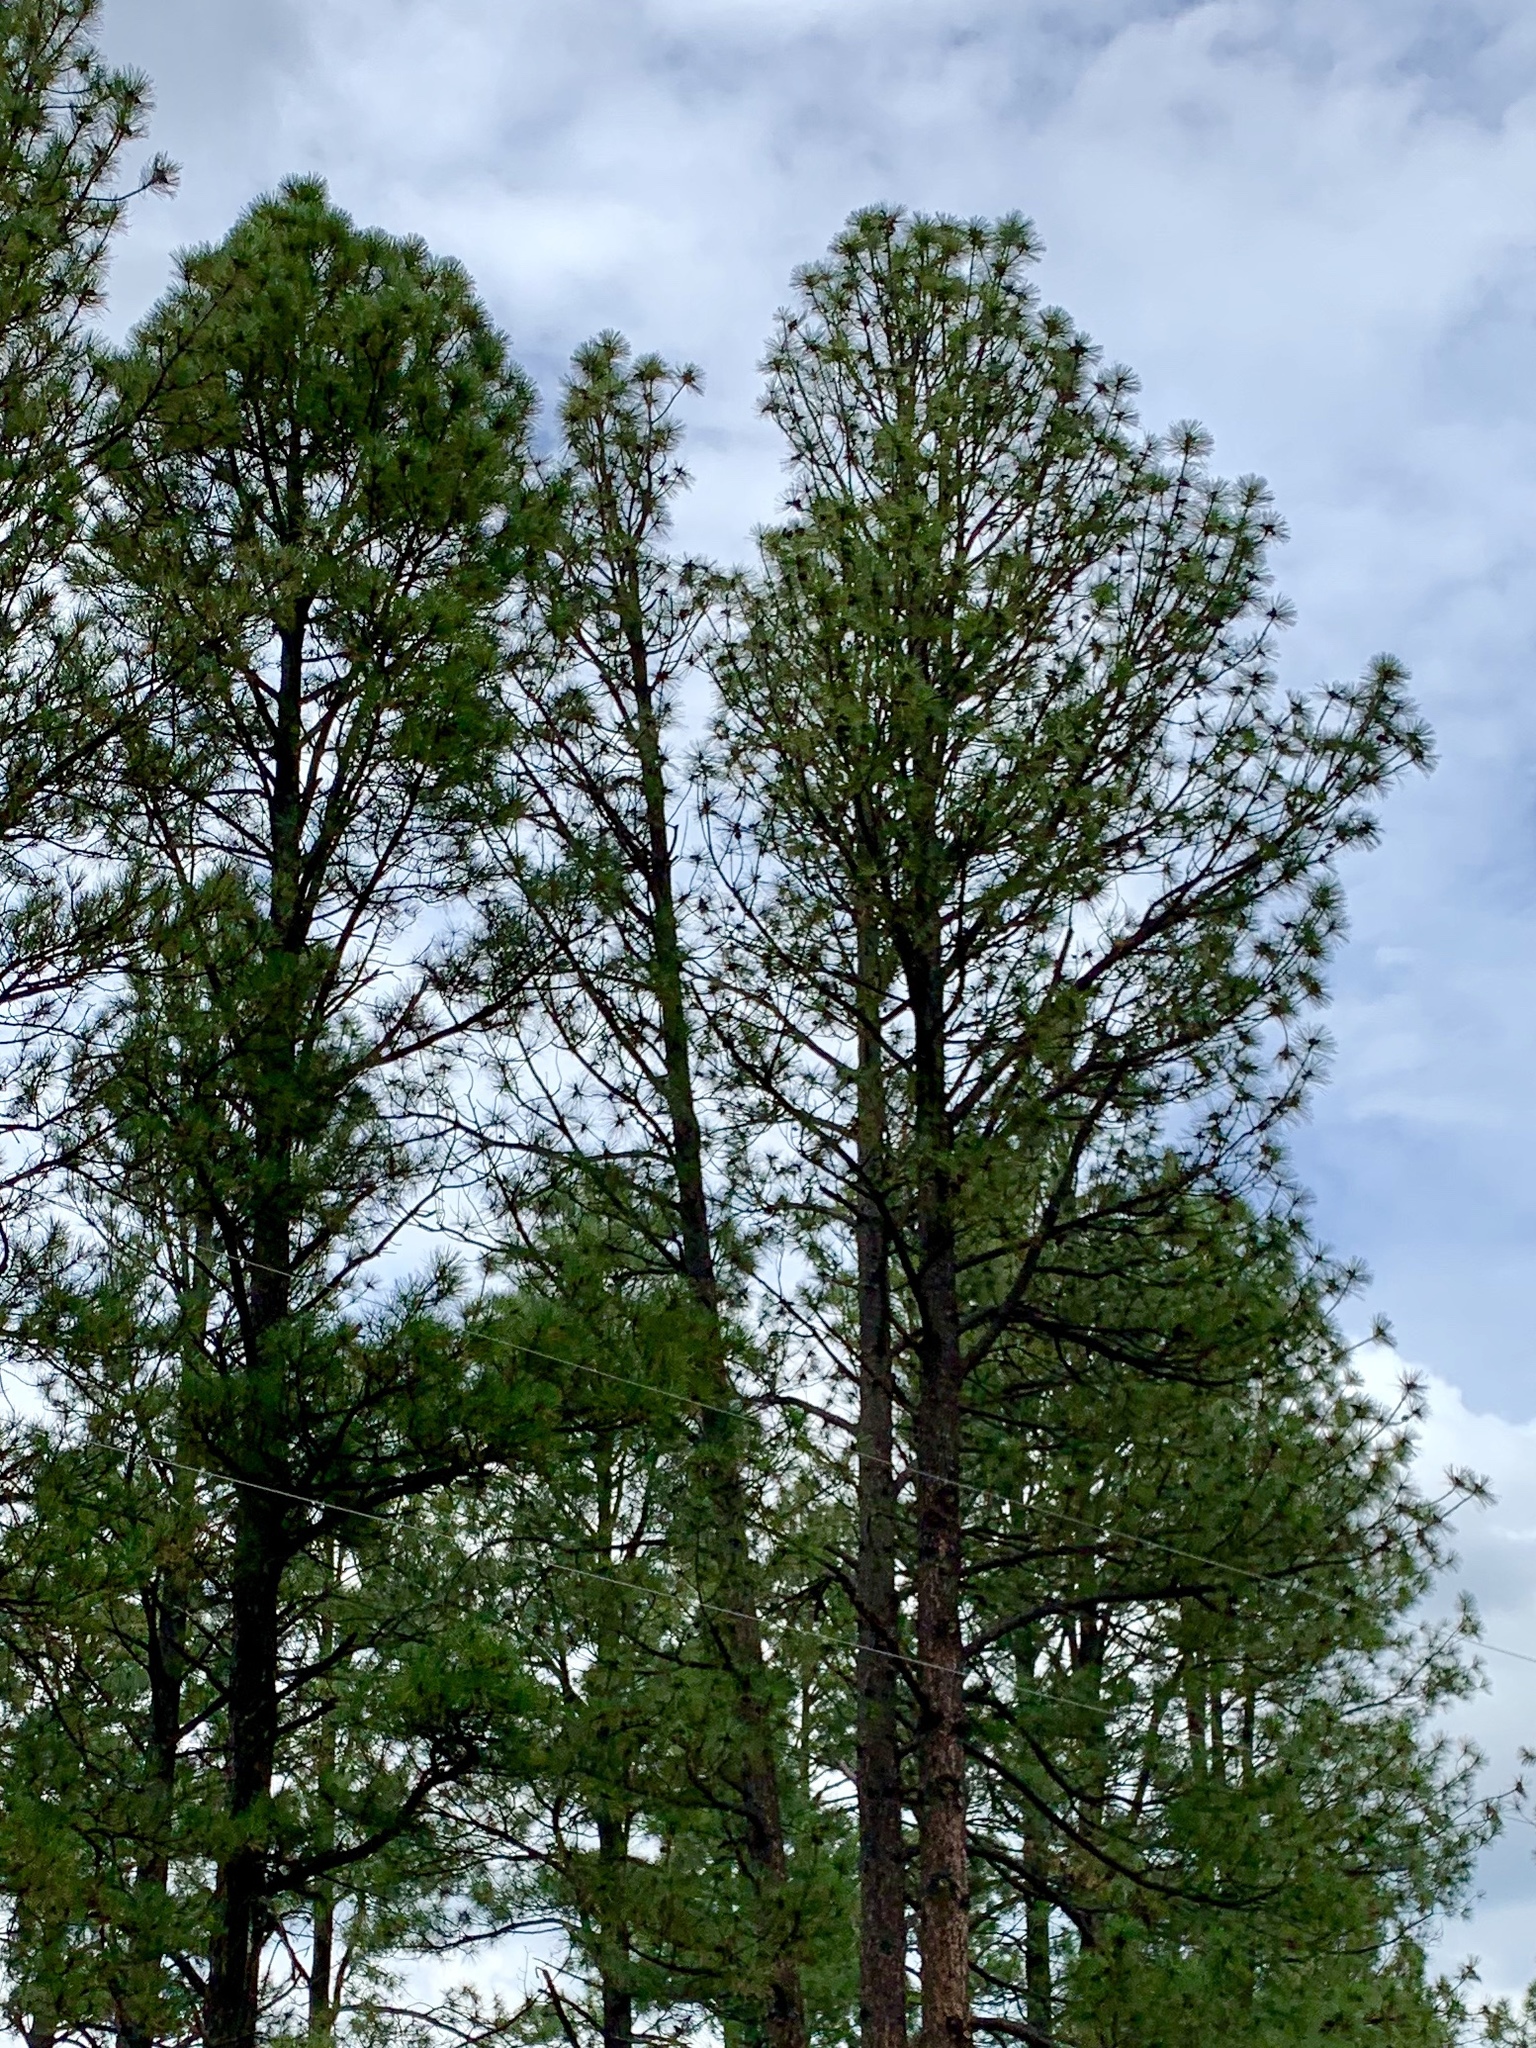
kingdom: Plantae
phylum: Tracheophyta
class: Pinopsida
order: Pinales
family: Pinaceae
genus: Pinus
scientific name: Pinus ponderosa
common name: Western yellow-pine
